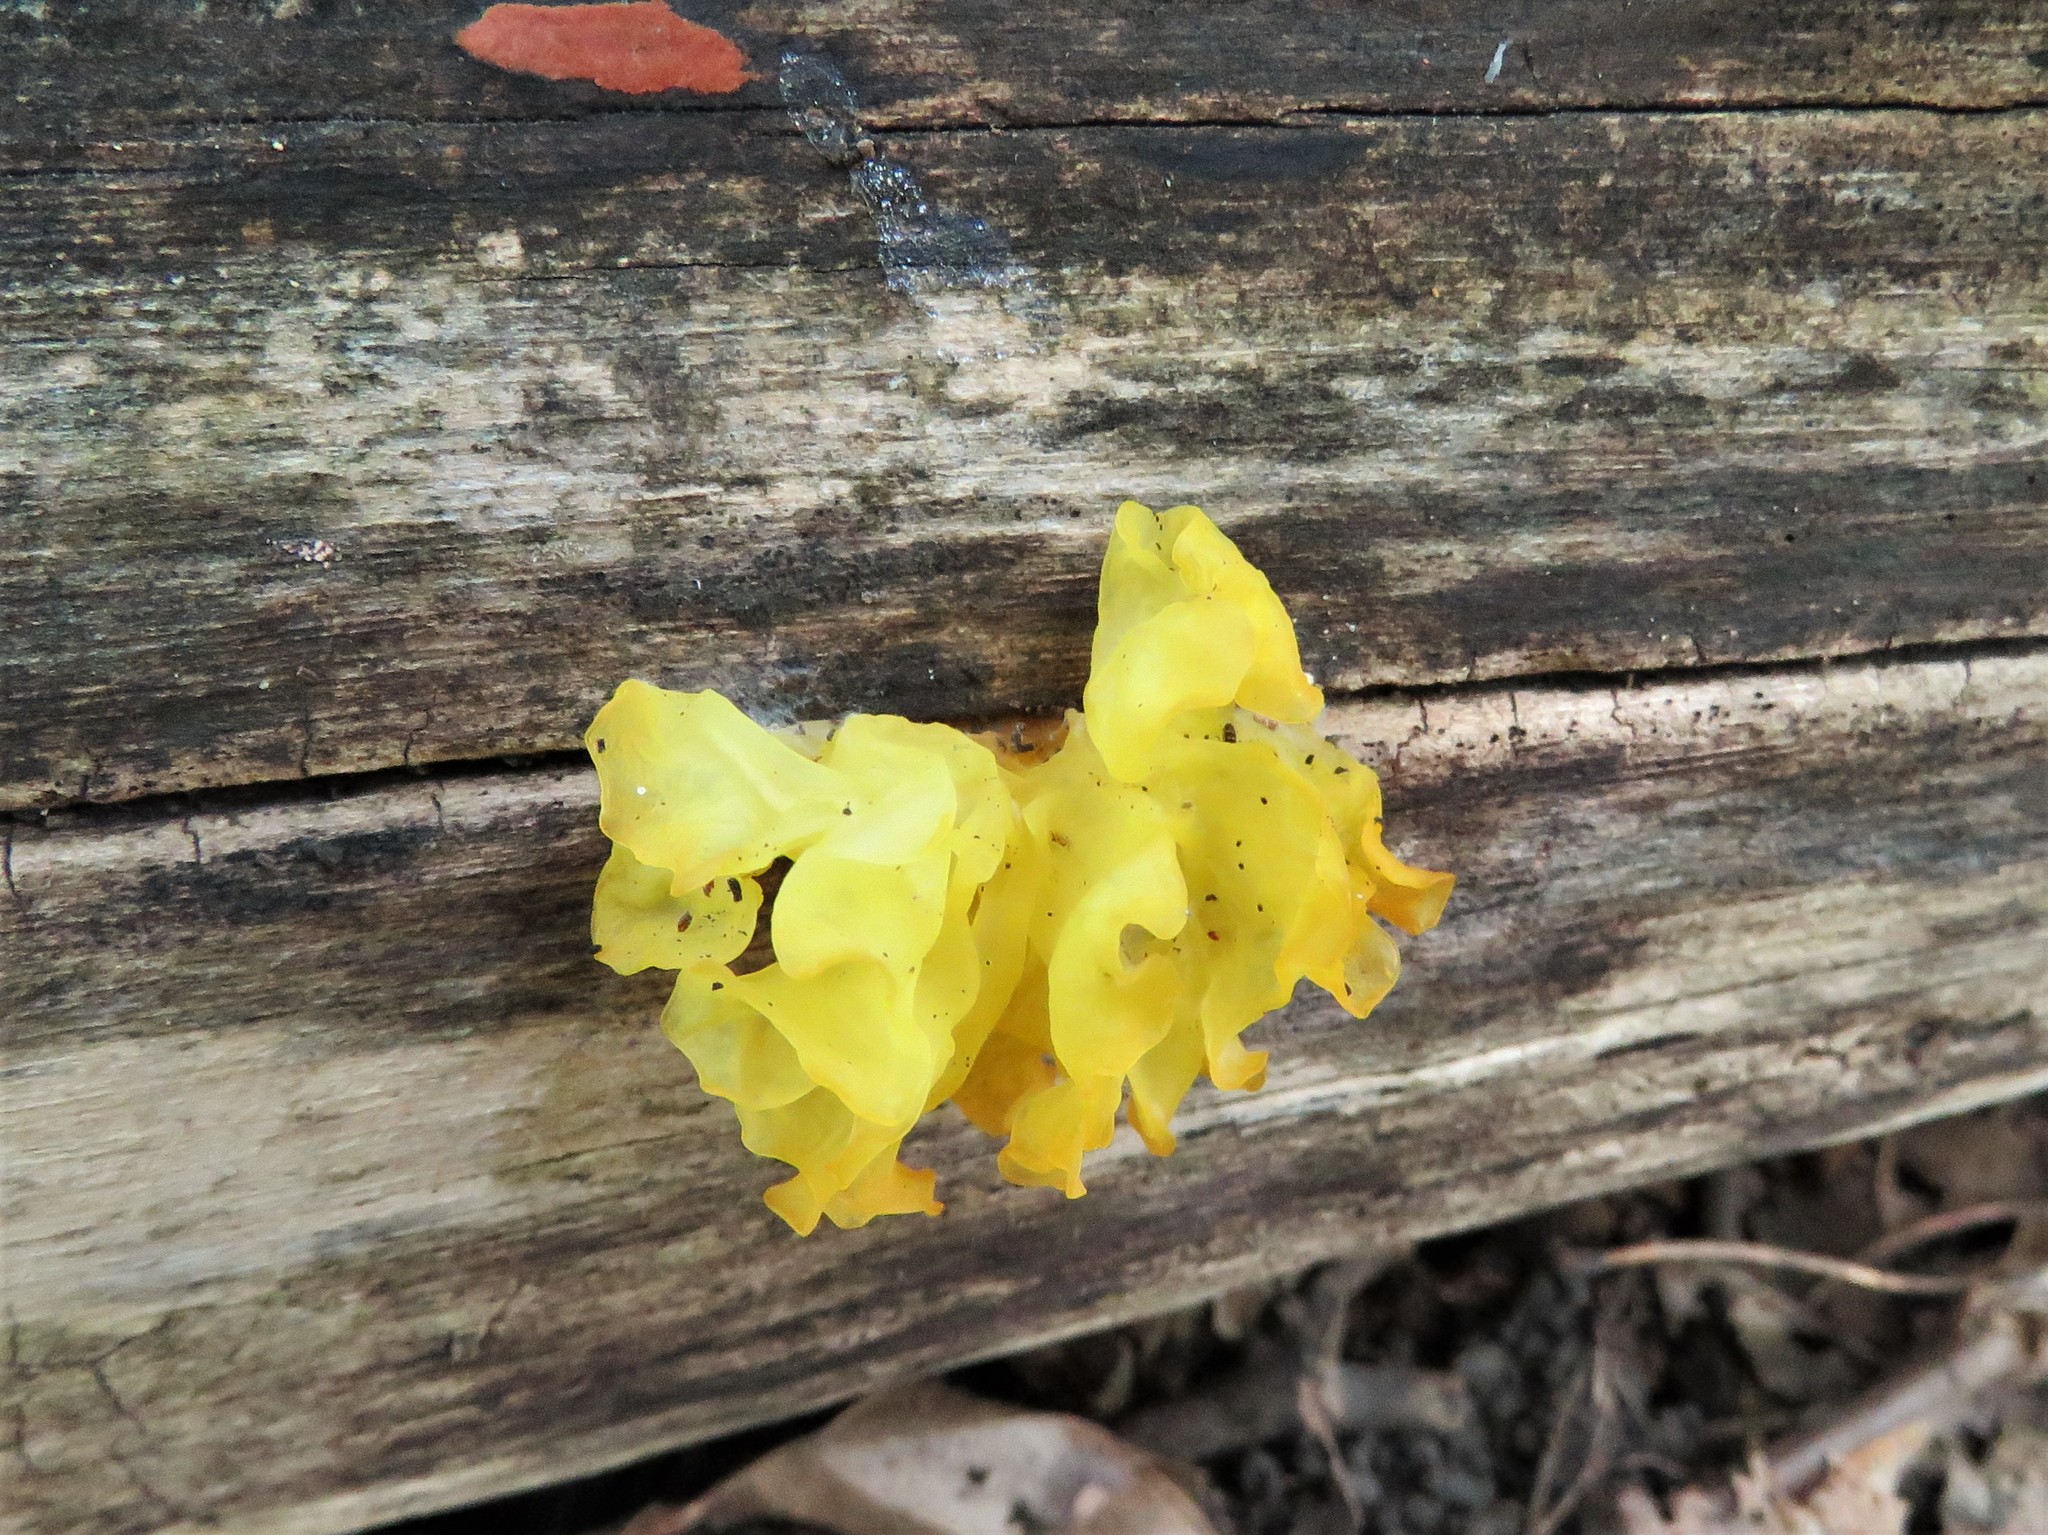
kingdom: Fungi
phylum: Basidiomycota
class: Tremellomycetes
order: Tremellales
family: Tremellaceae
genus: Tremella
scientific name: Tremella mesenterica
